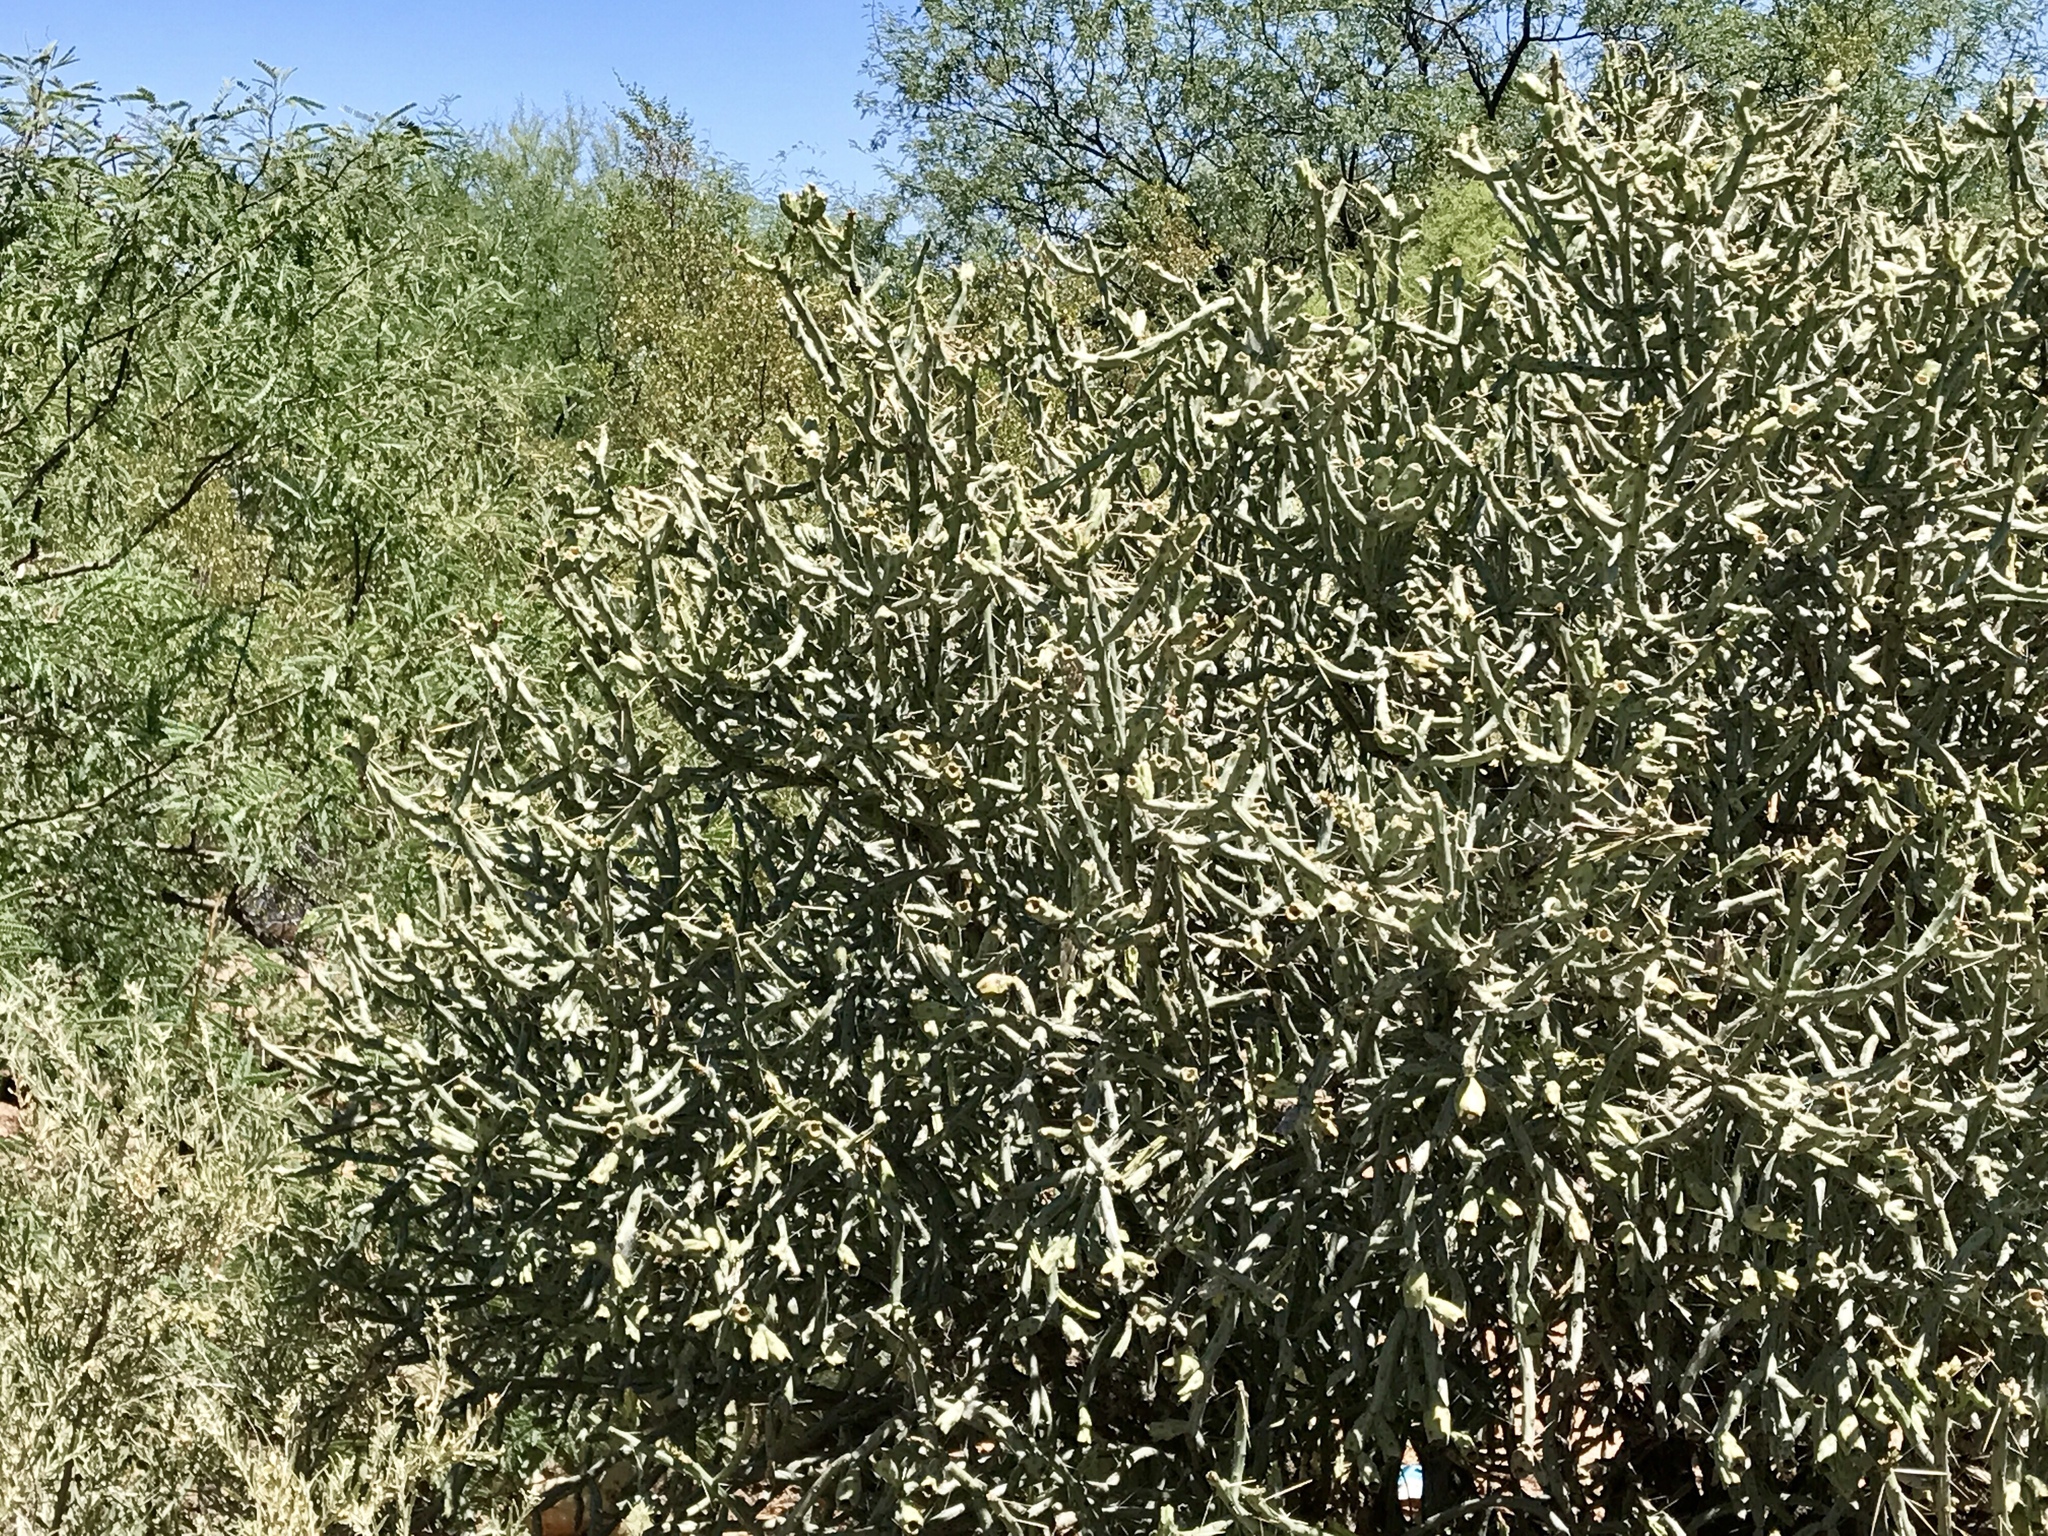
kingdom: Plantae
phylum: Tracheophyta
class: Magnoliopsida
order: Caryophyllales
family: Cactaceae
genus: Cylindropuntia
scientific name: Cylindropuntia arbuscula
